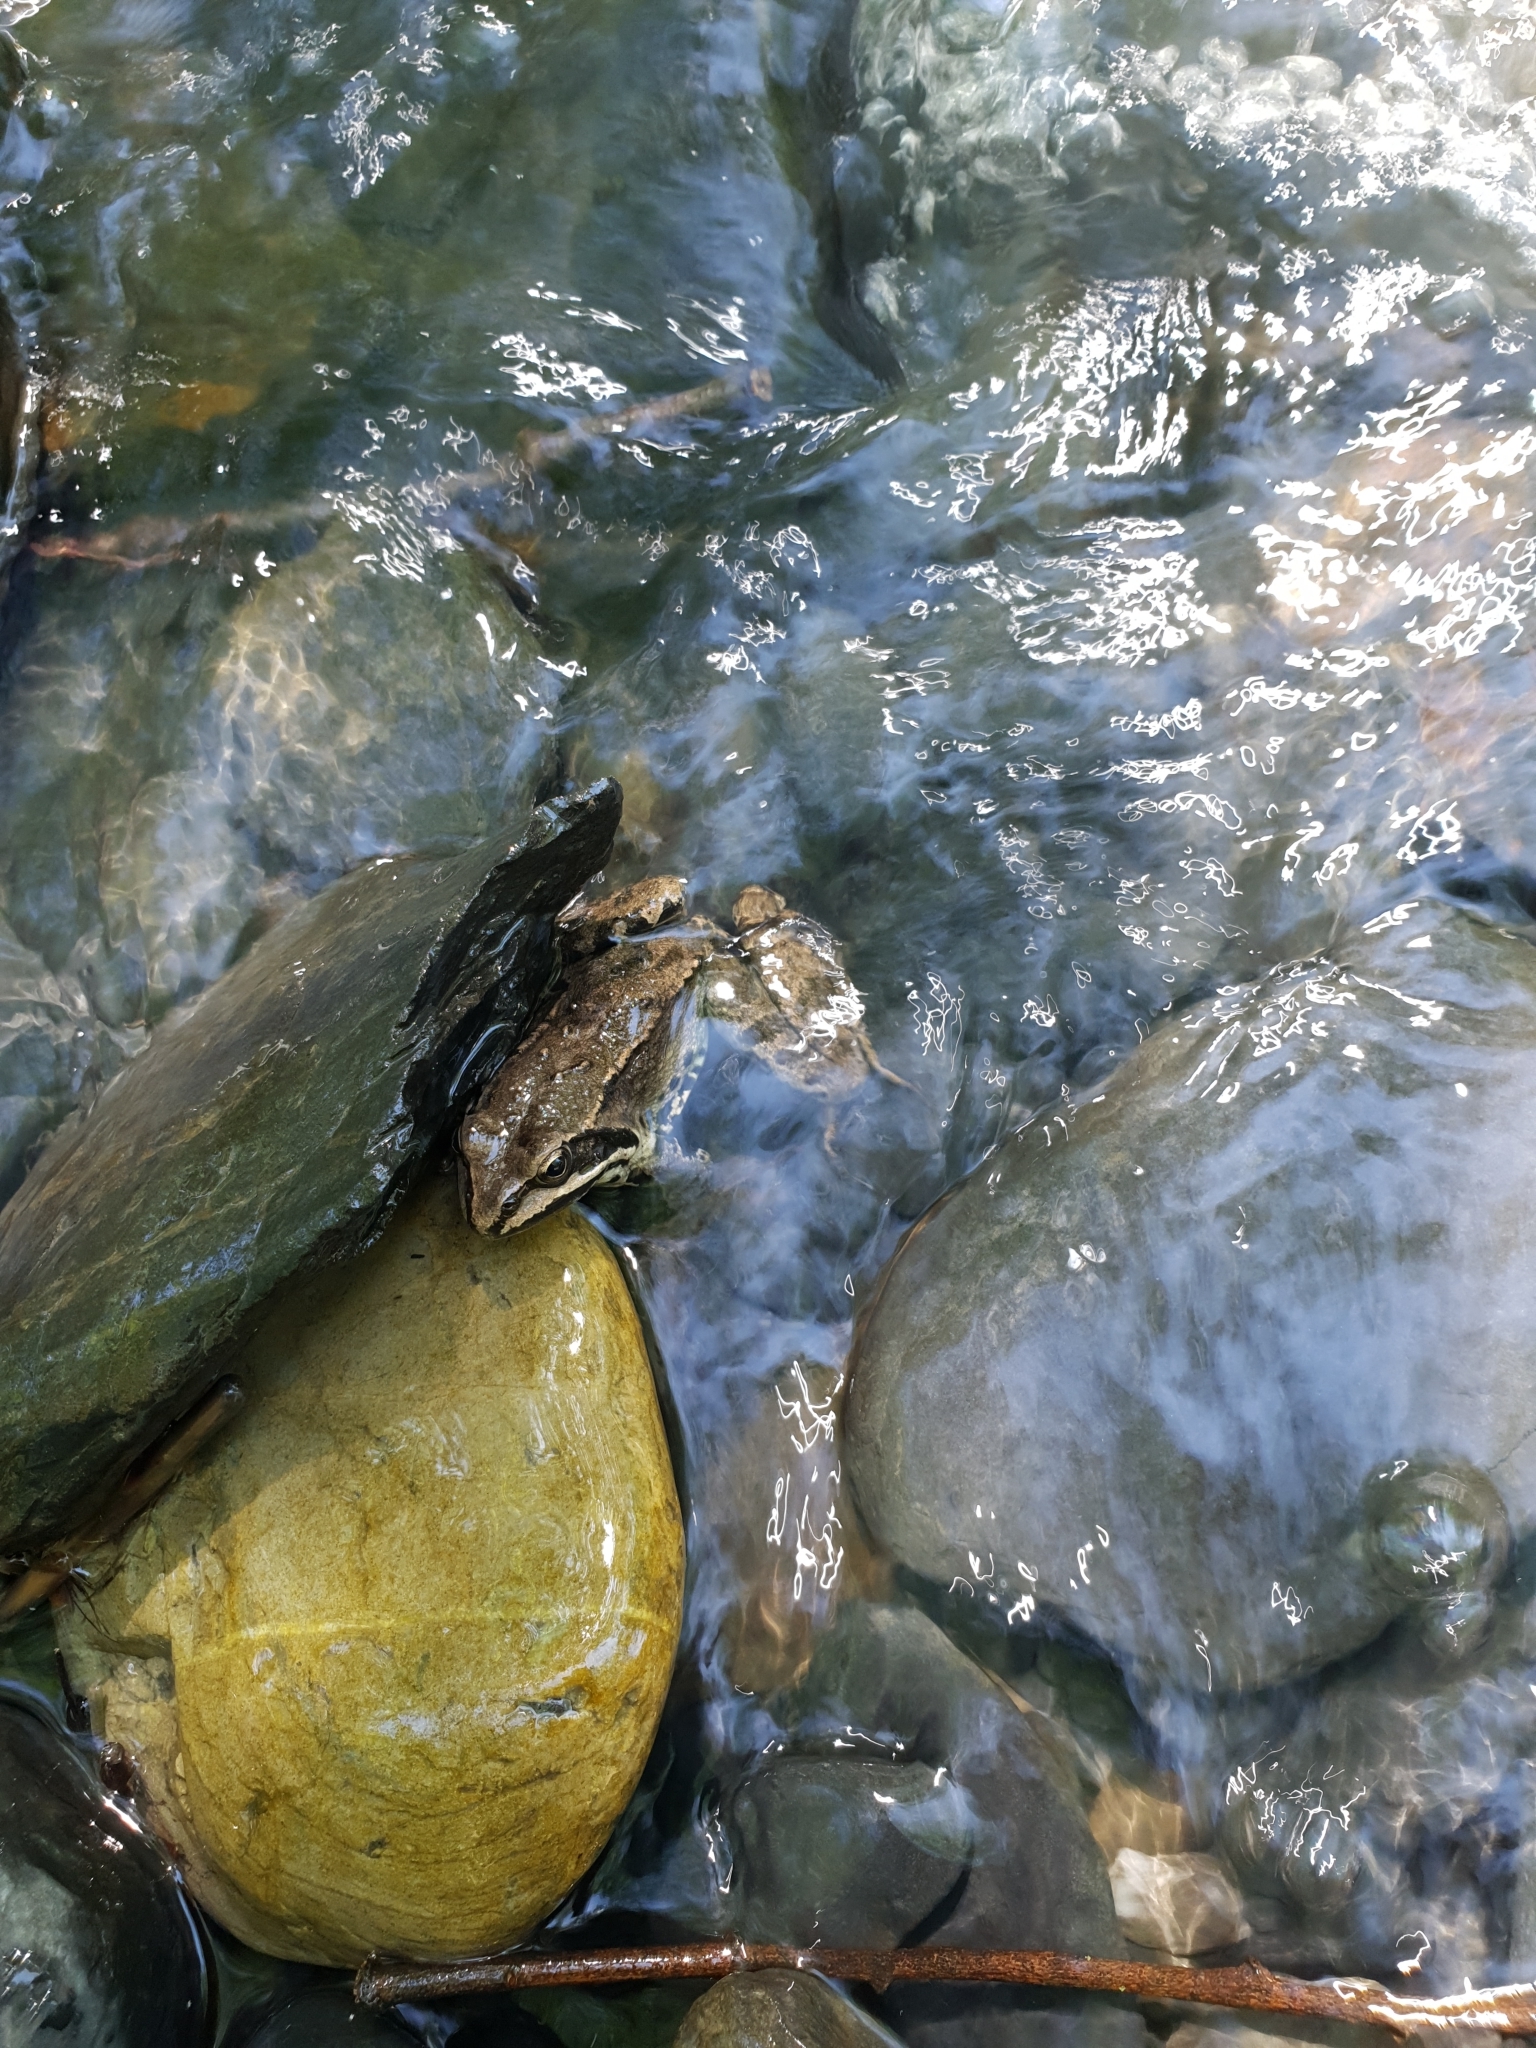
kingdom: Animalia
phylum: Chordata
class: Amphibia
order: Anura
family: Ranidae
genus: Rana
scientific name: Rana macrocnemis
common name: Banded frog
